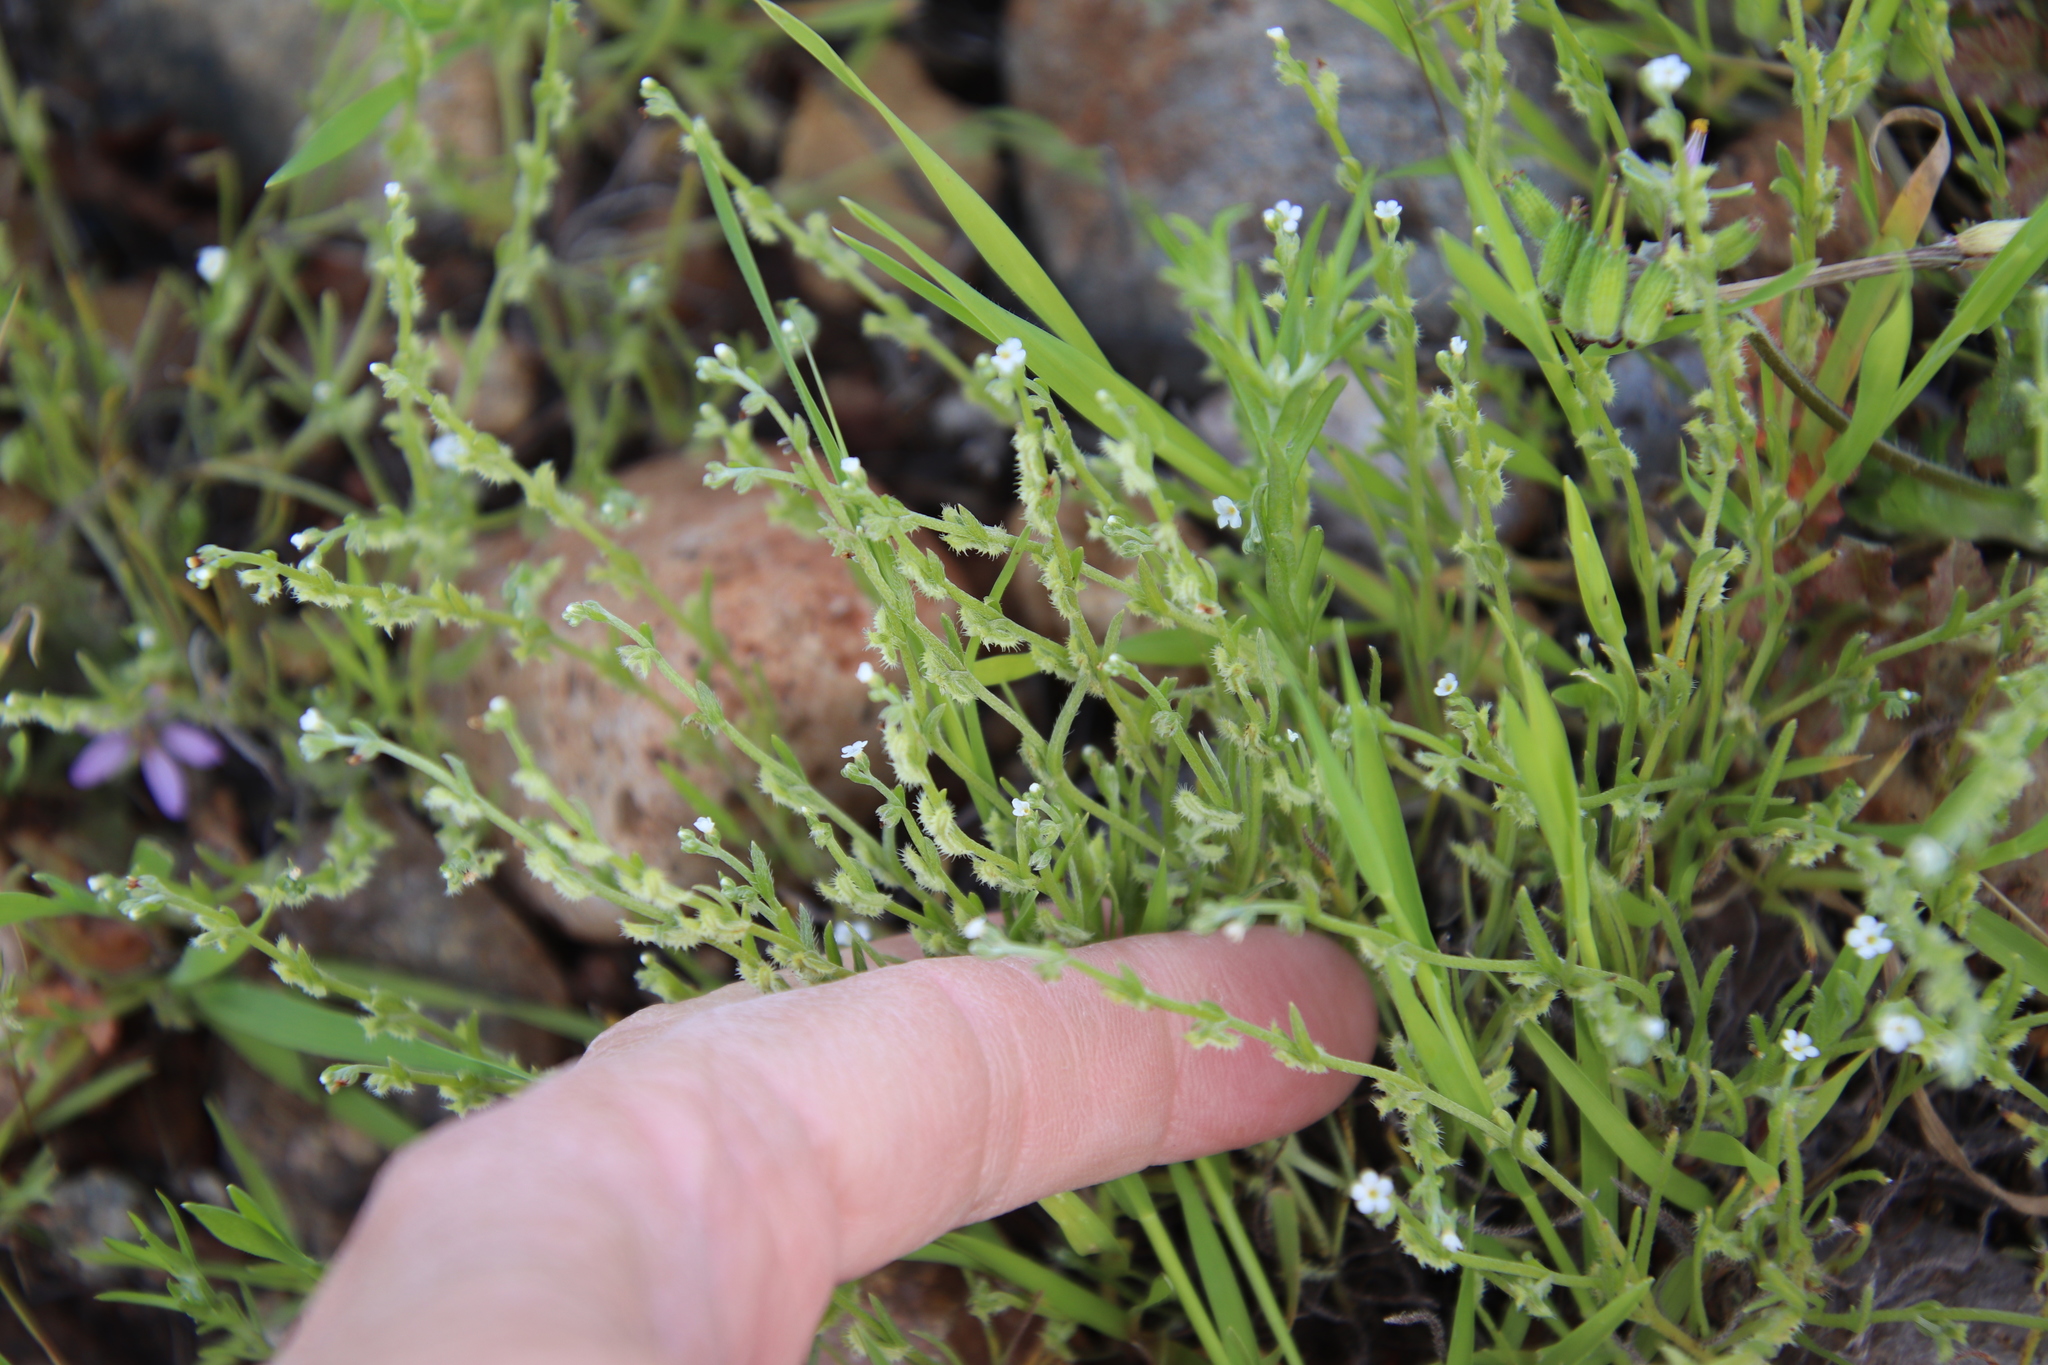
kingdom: Plantae
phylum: Tracheophyta
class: Magnoliopsida
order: Boraginales
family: Boraginaceae
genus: Pectocarya
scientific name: Pectocarya linearis
